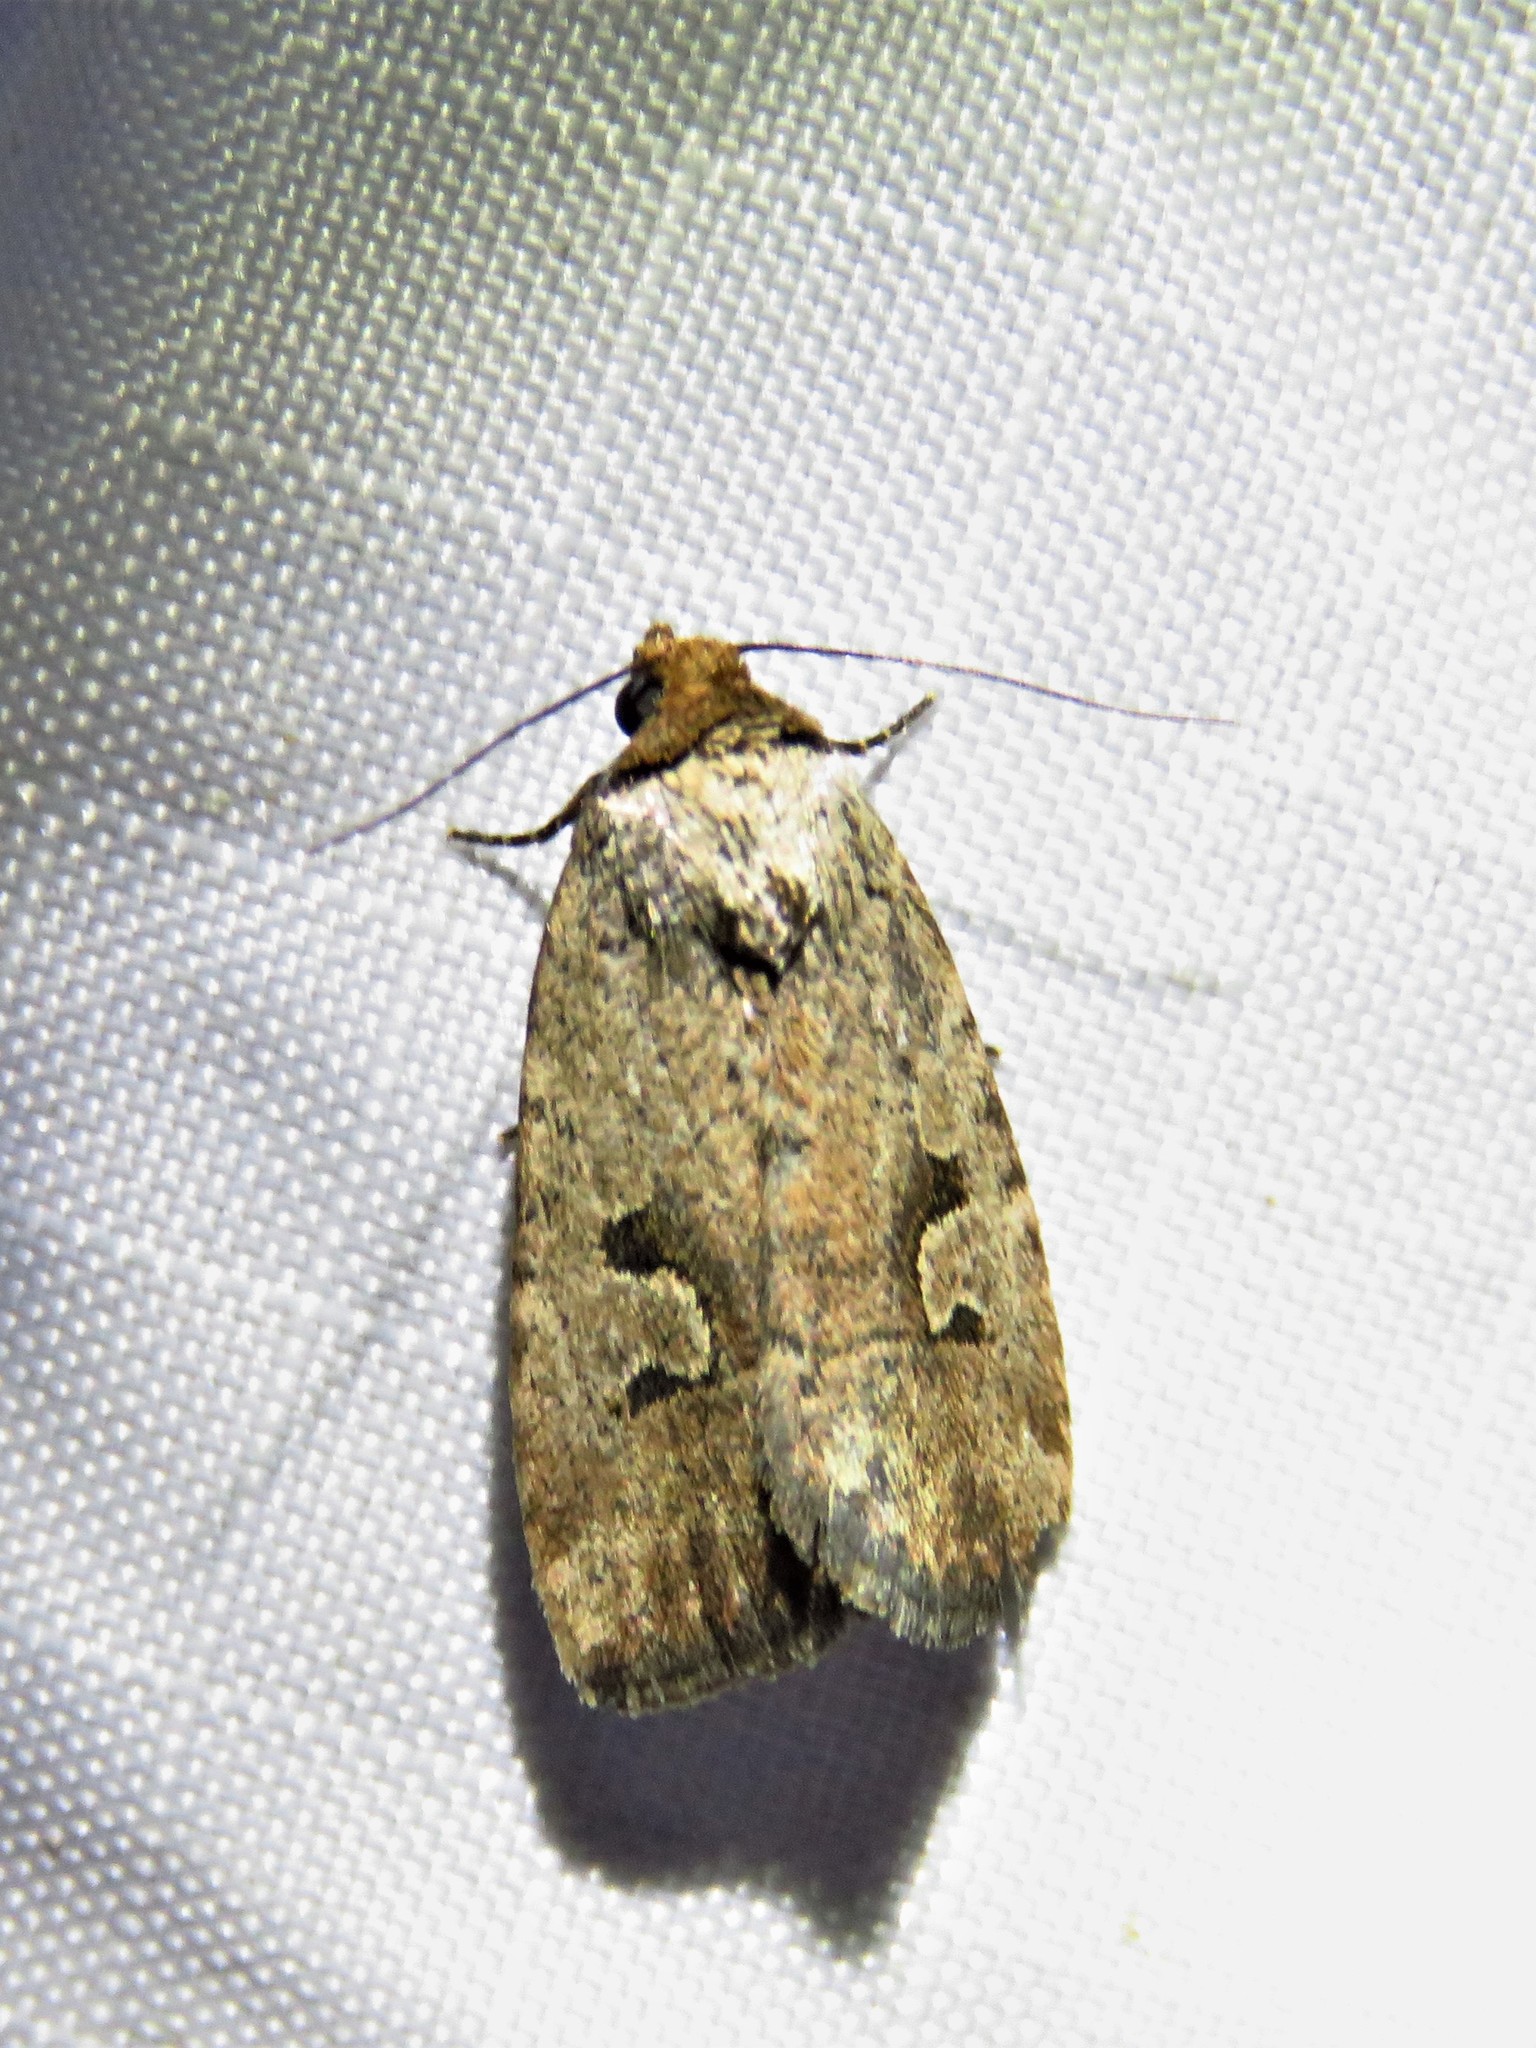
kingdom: Animalia
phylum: Arthropoda
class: Insecta
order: Lepidoptera
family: Noctuidae
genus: Elaphria
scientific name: Elaphria festivoides
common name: Festive midget
